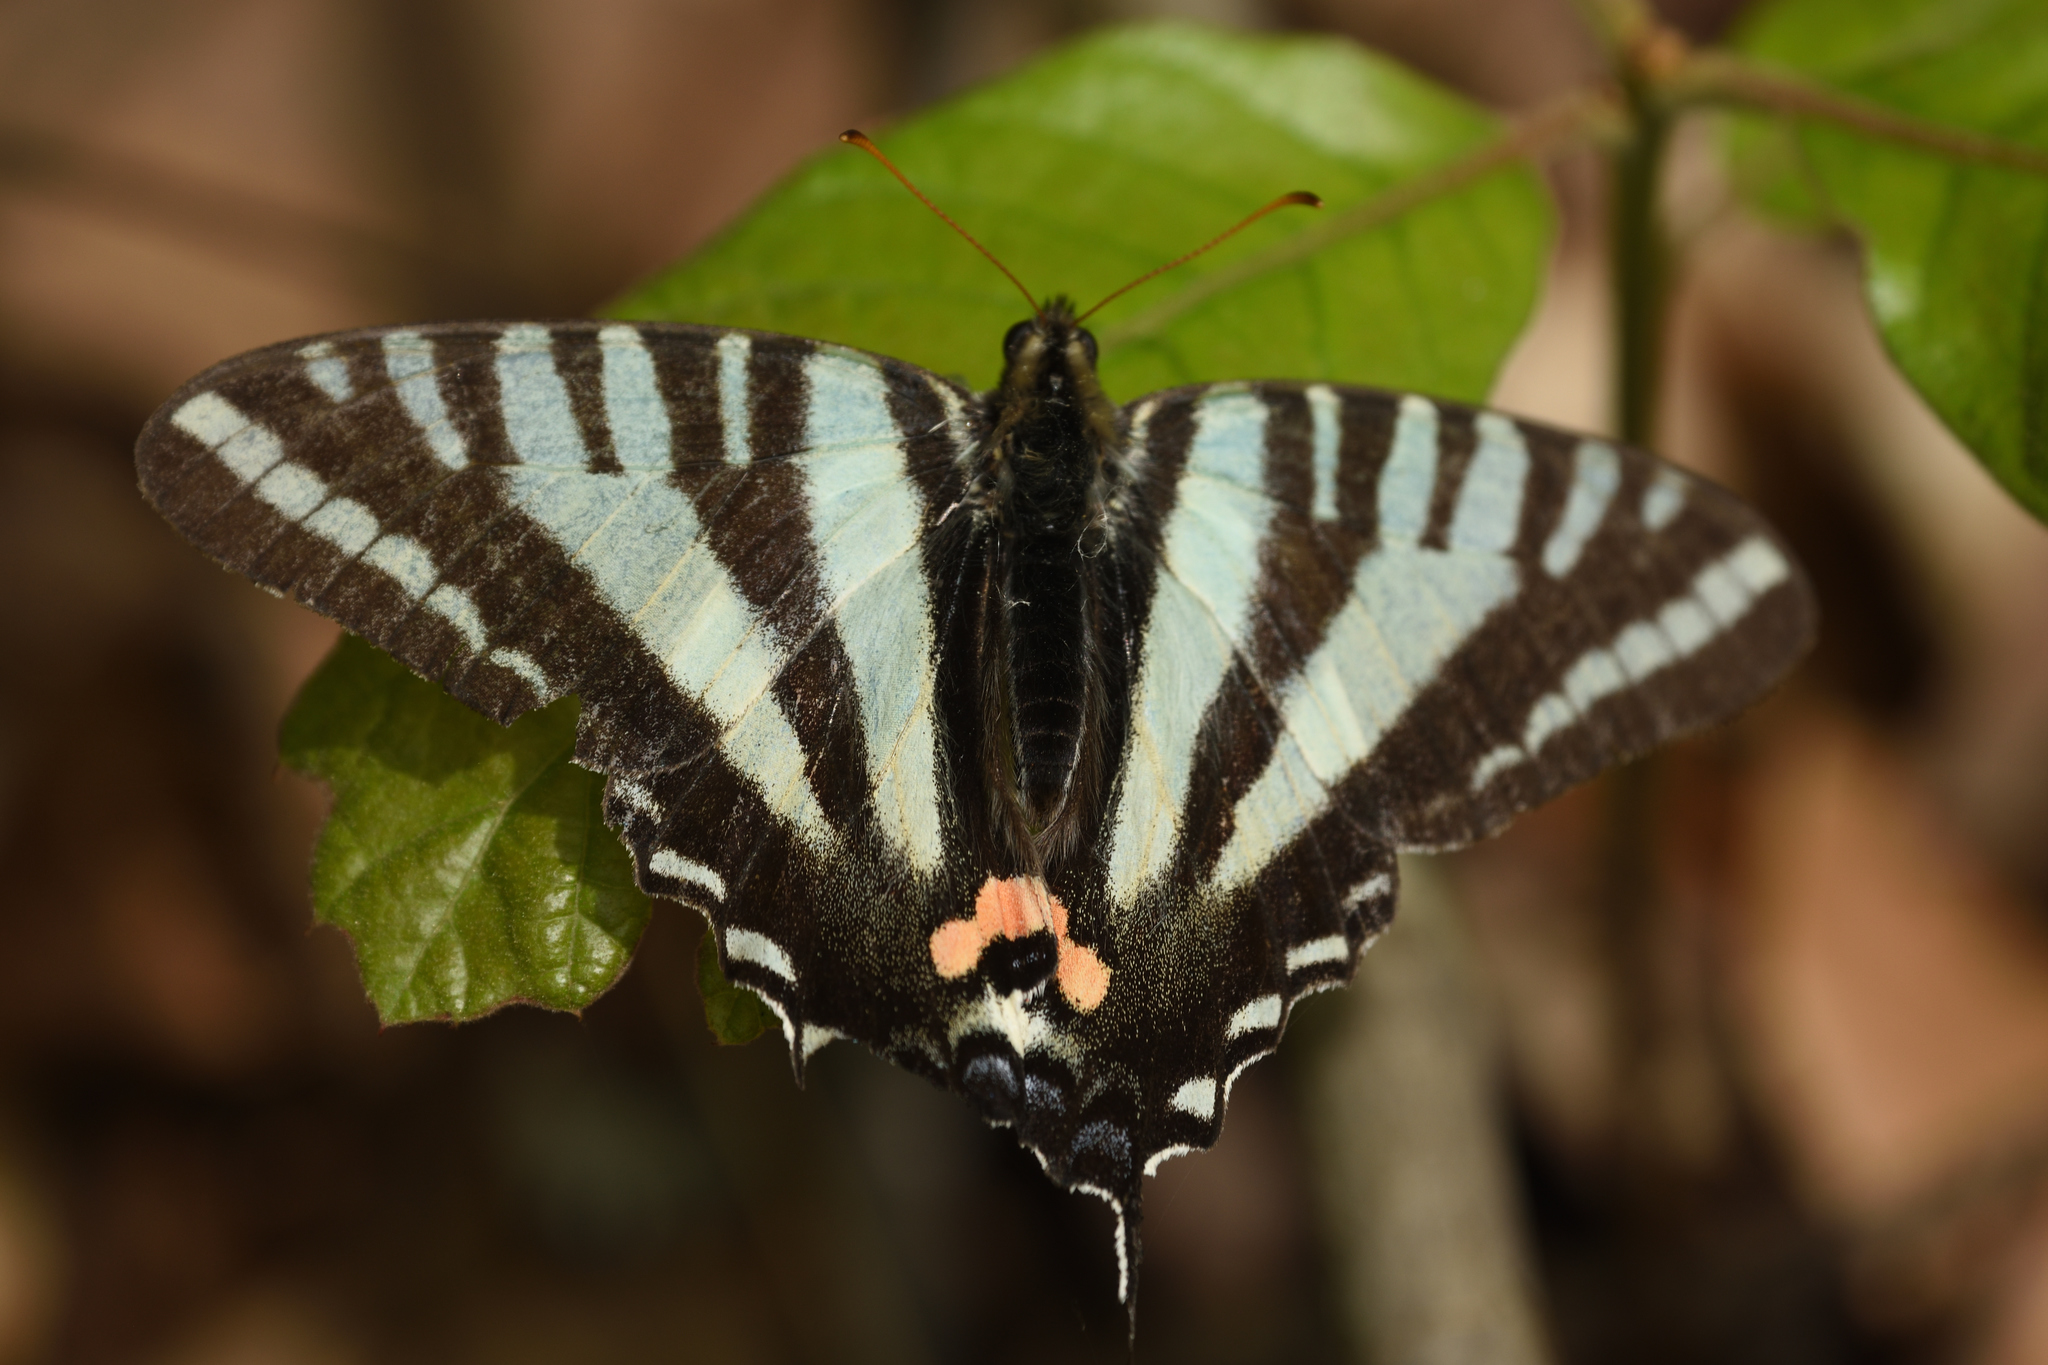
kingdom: Animalia
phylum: Arthropoda
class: Insecta
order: Lepidoptera
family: Papilionidae
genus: Protographium
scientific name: Protographium marcellus
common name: Zebra swallowtail
